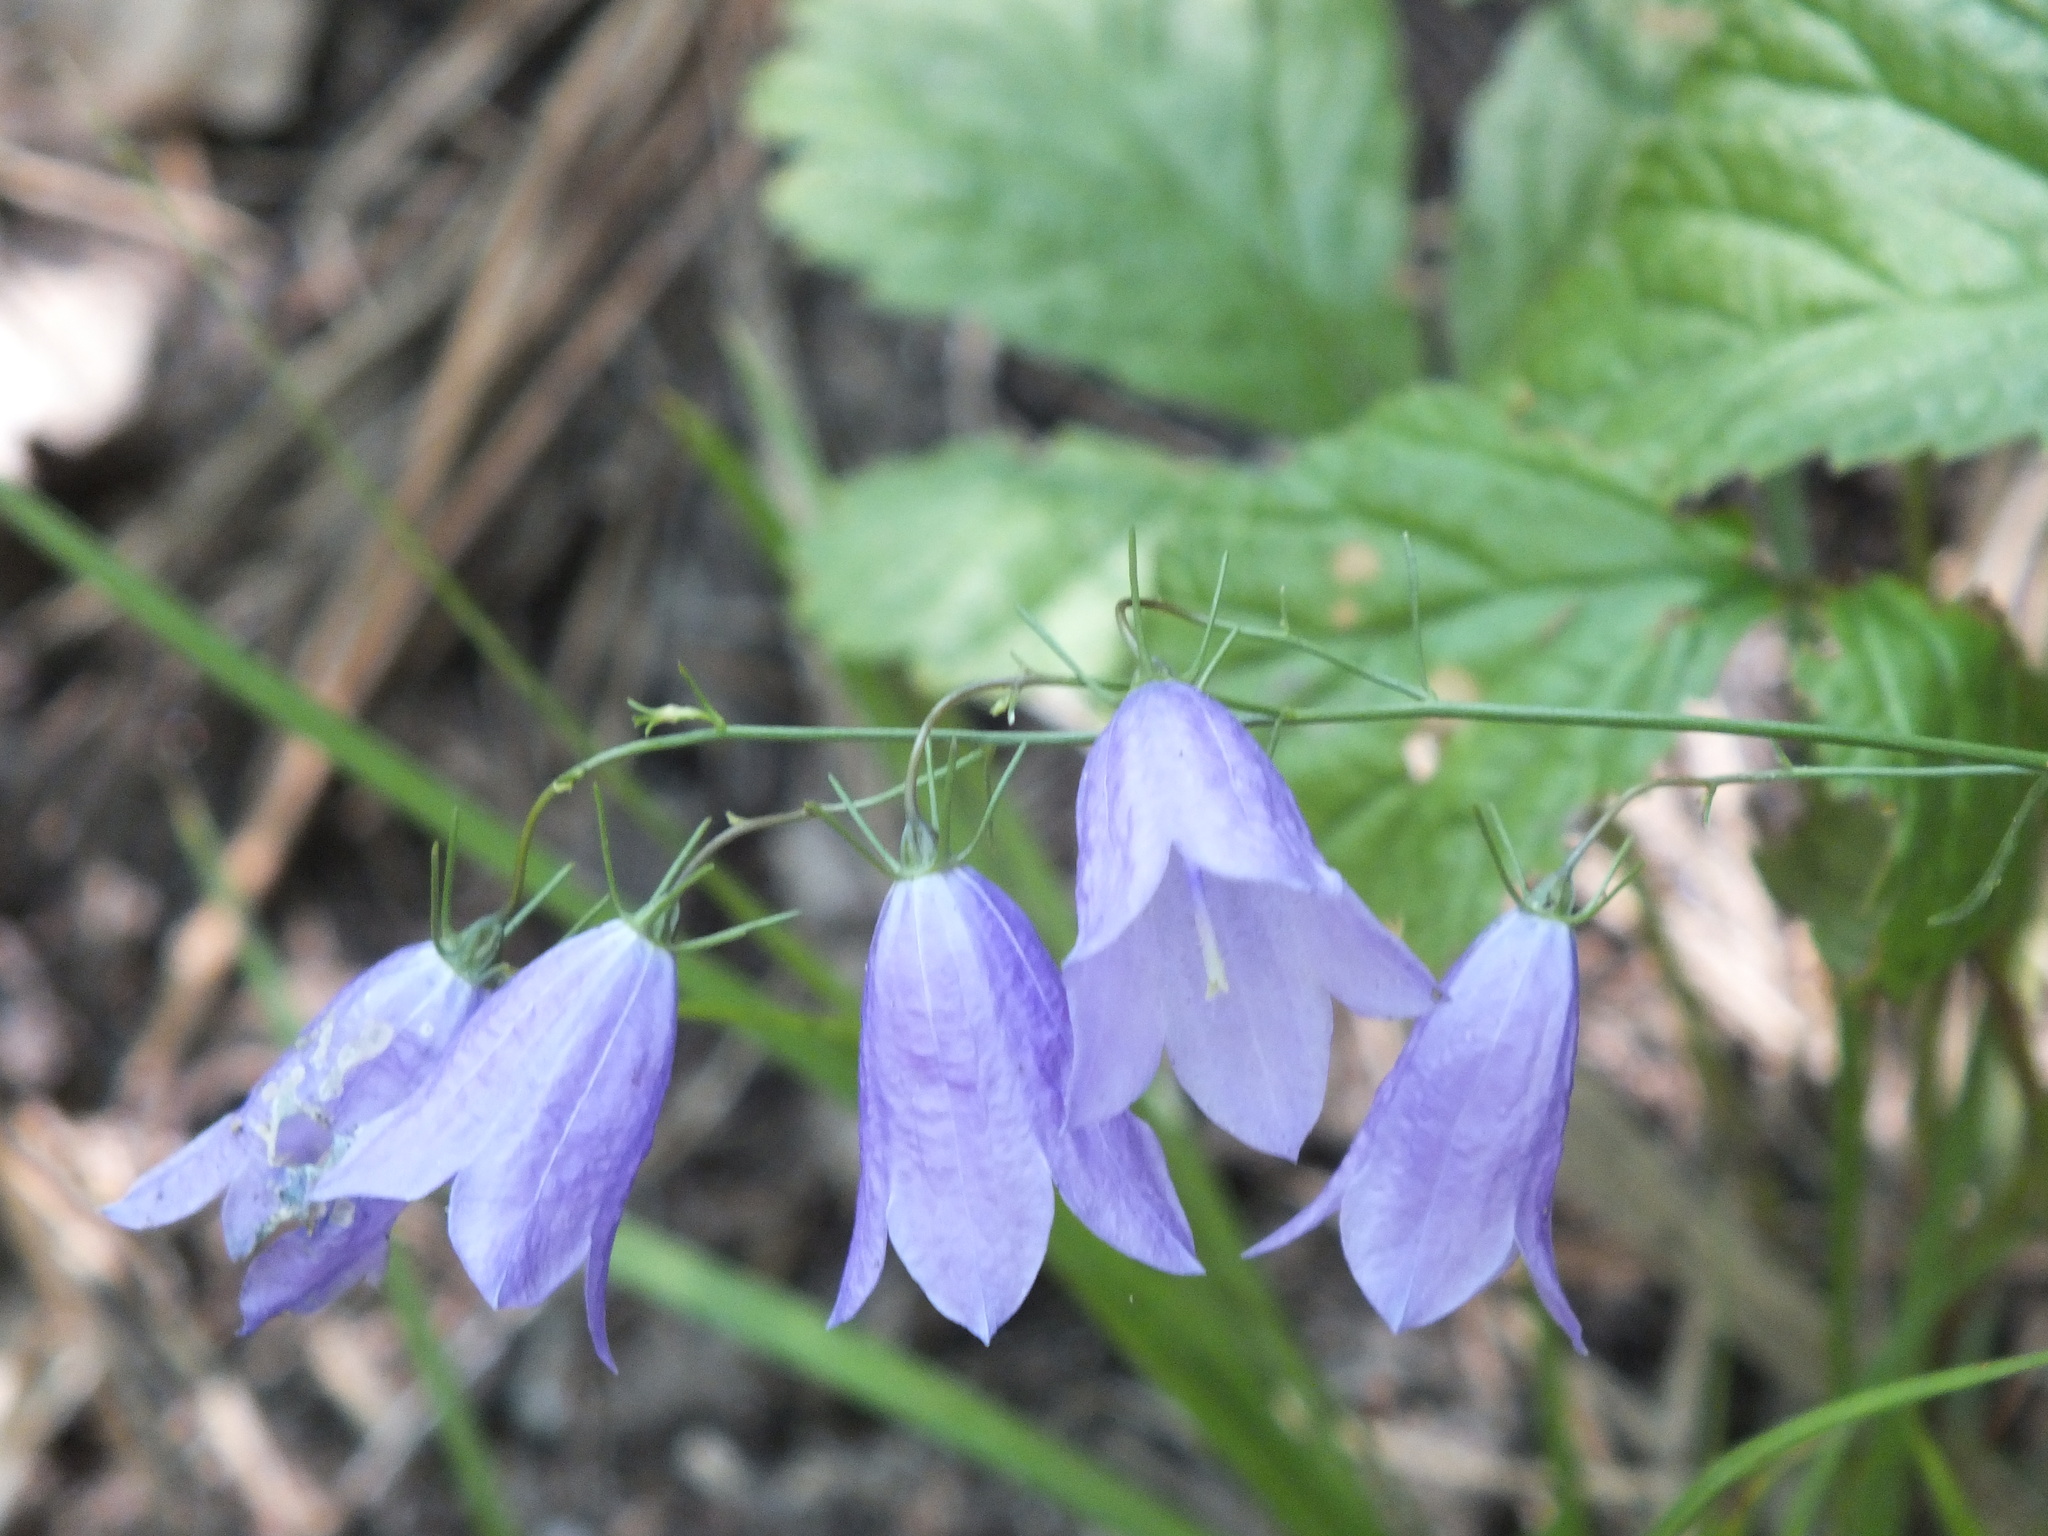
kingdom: Plantae
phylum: Tracheophyta
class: Magnoliopsida
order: Asterales
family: Campanulaceae
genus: Campanula
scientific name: Campanula rotundifolia
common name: Harebell
